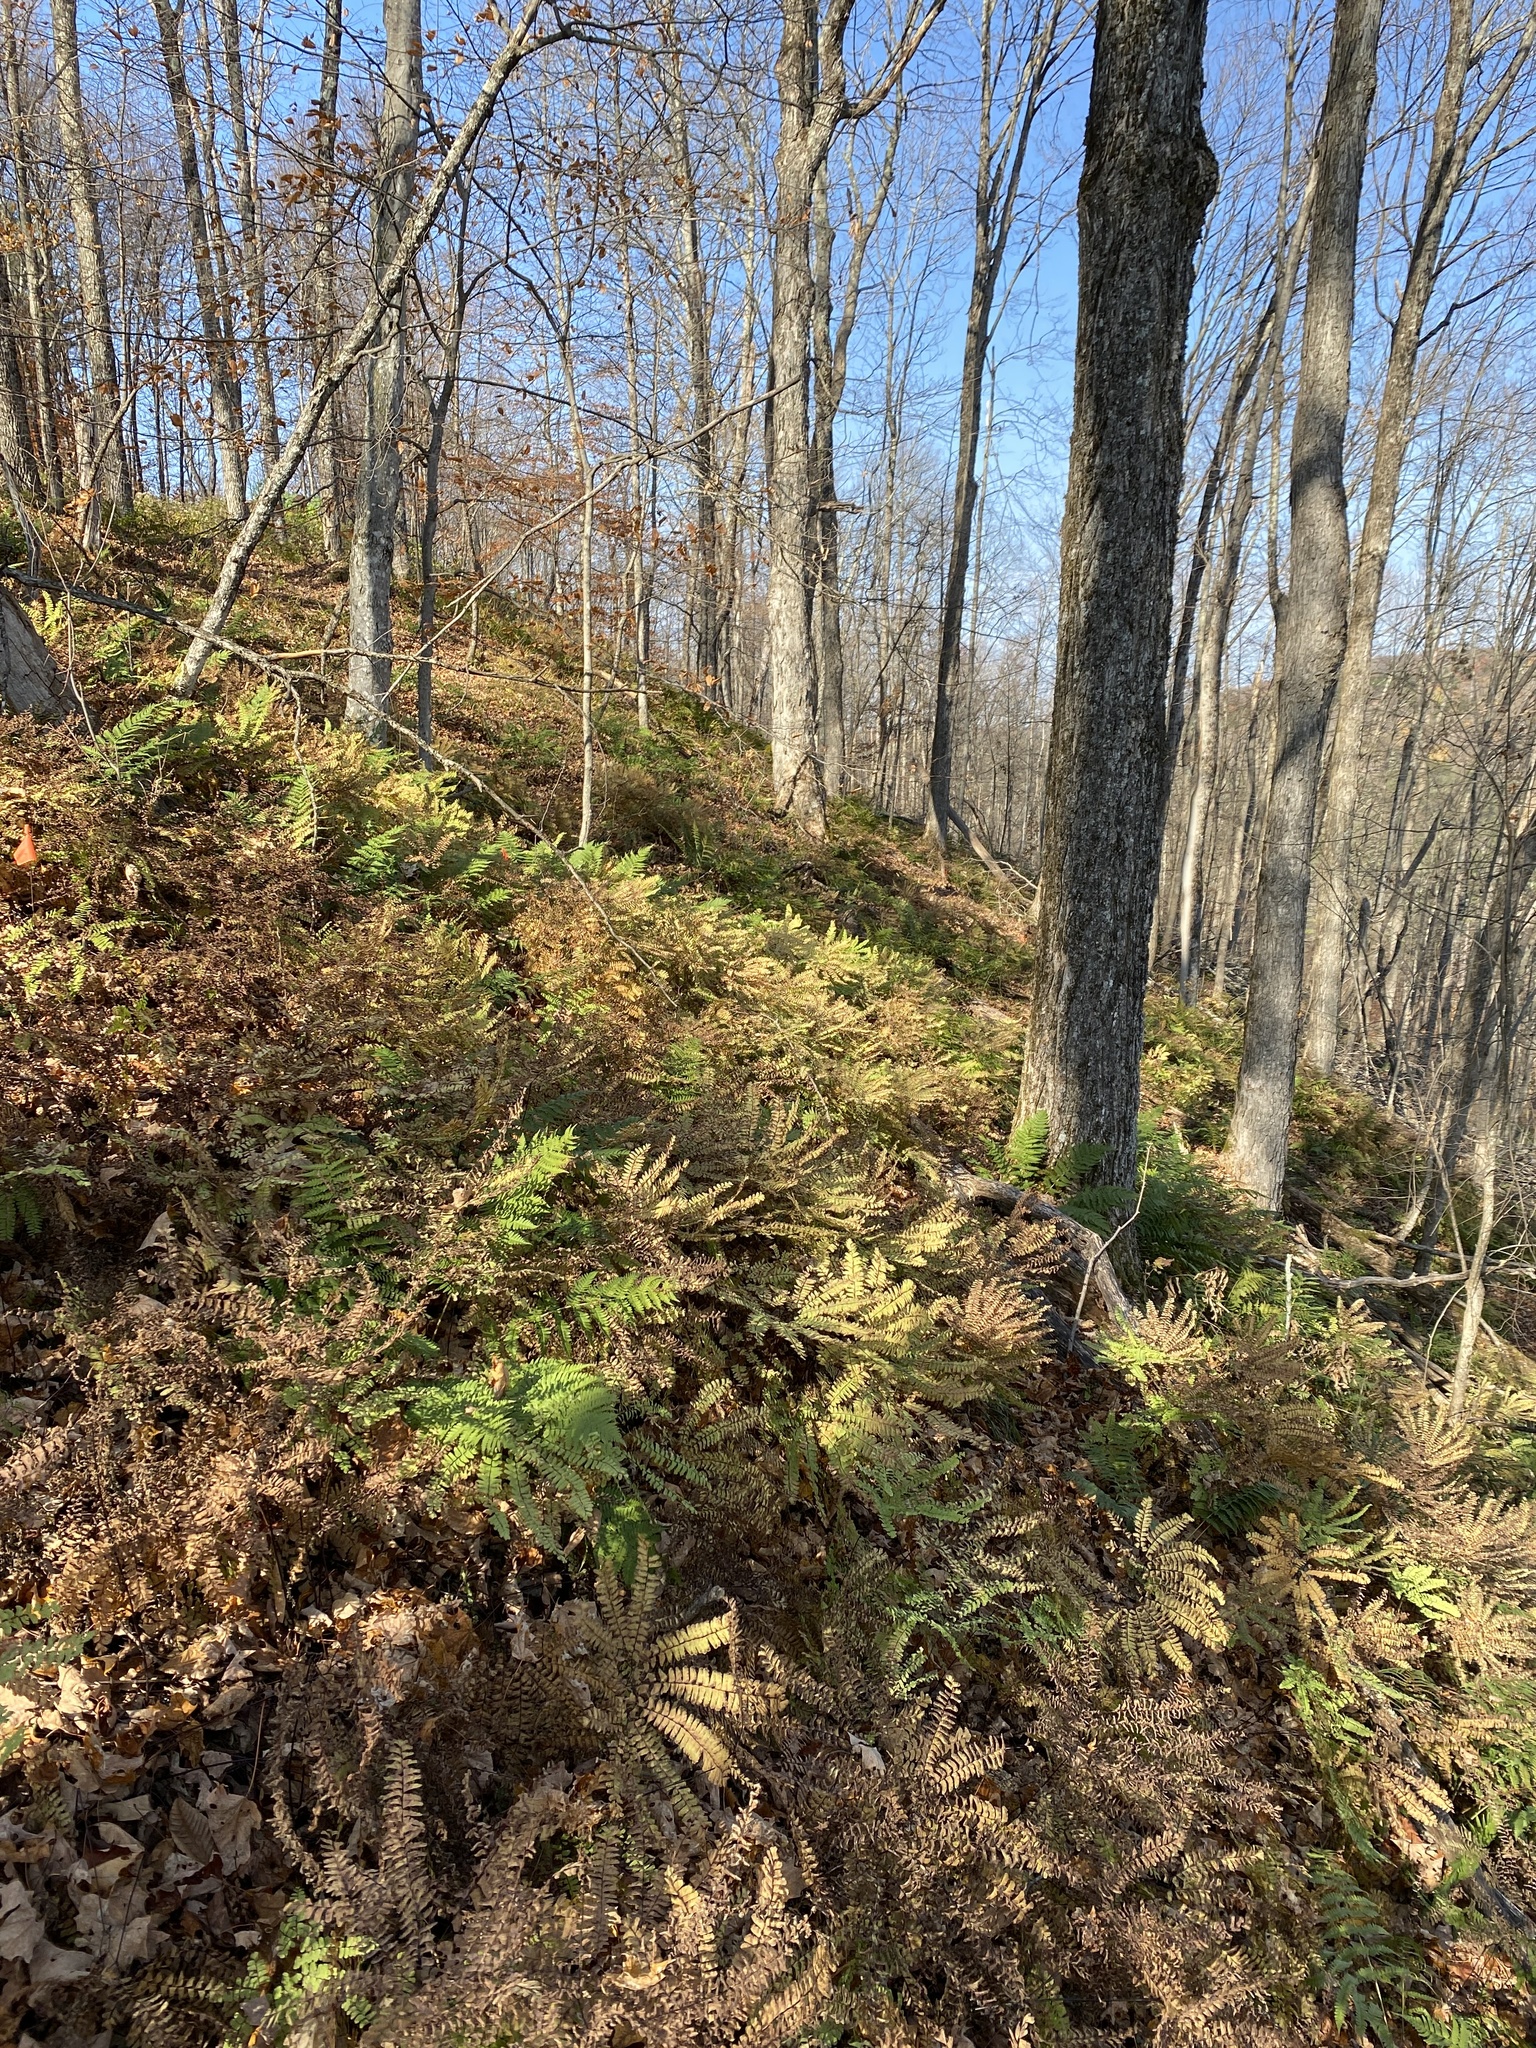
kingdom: Plantae
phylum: Tracheophyta
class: Polypodiopsida
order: Polypodiales
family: Pteridaceae
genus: Adiantum
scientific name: Adiantum pedatum
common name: Five-finger fern
